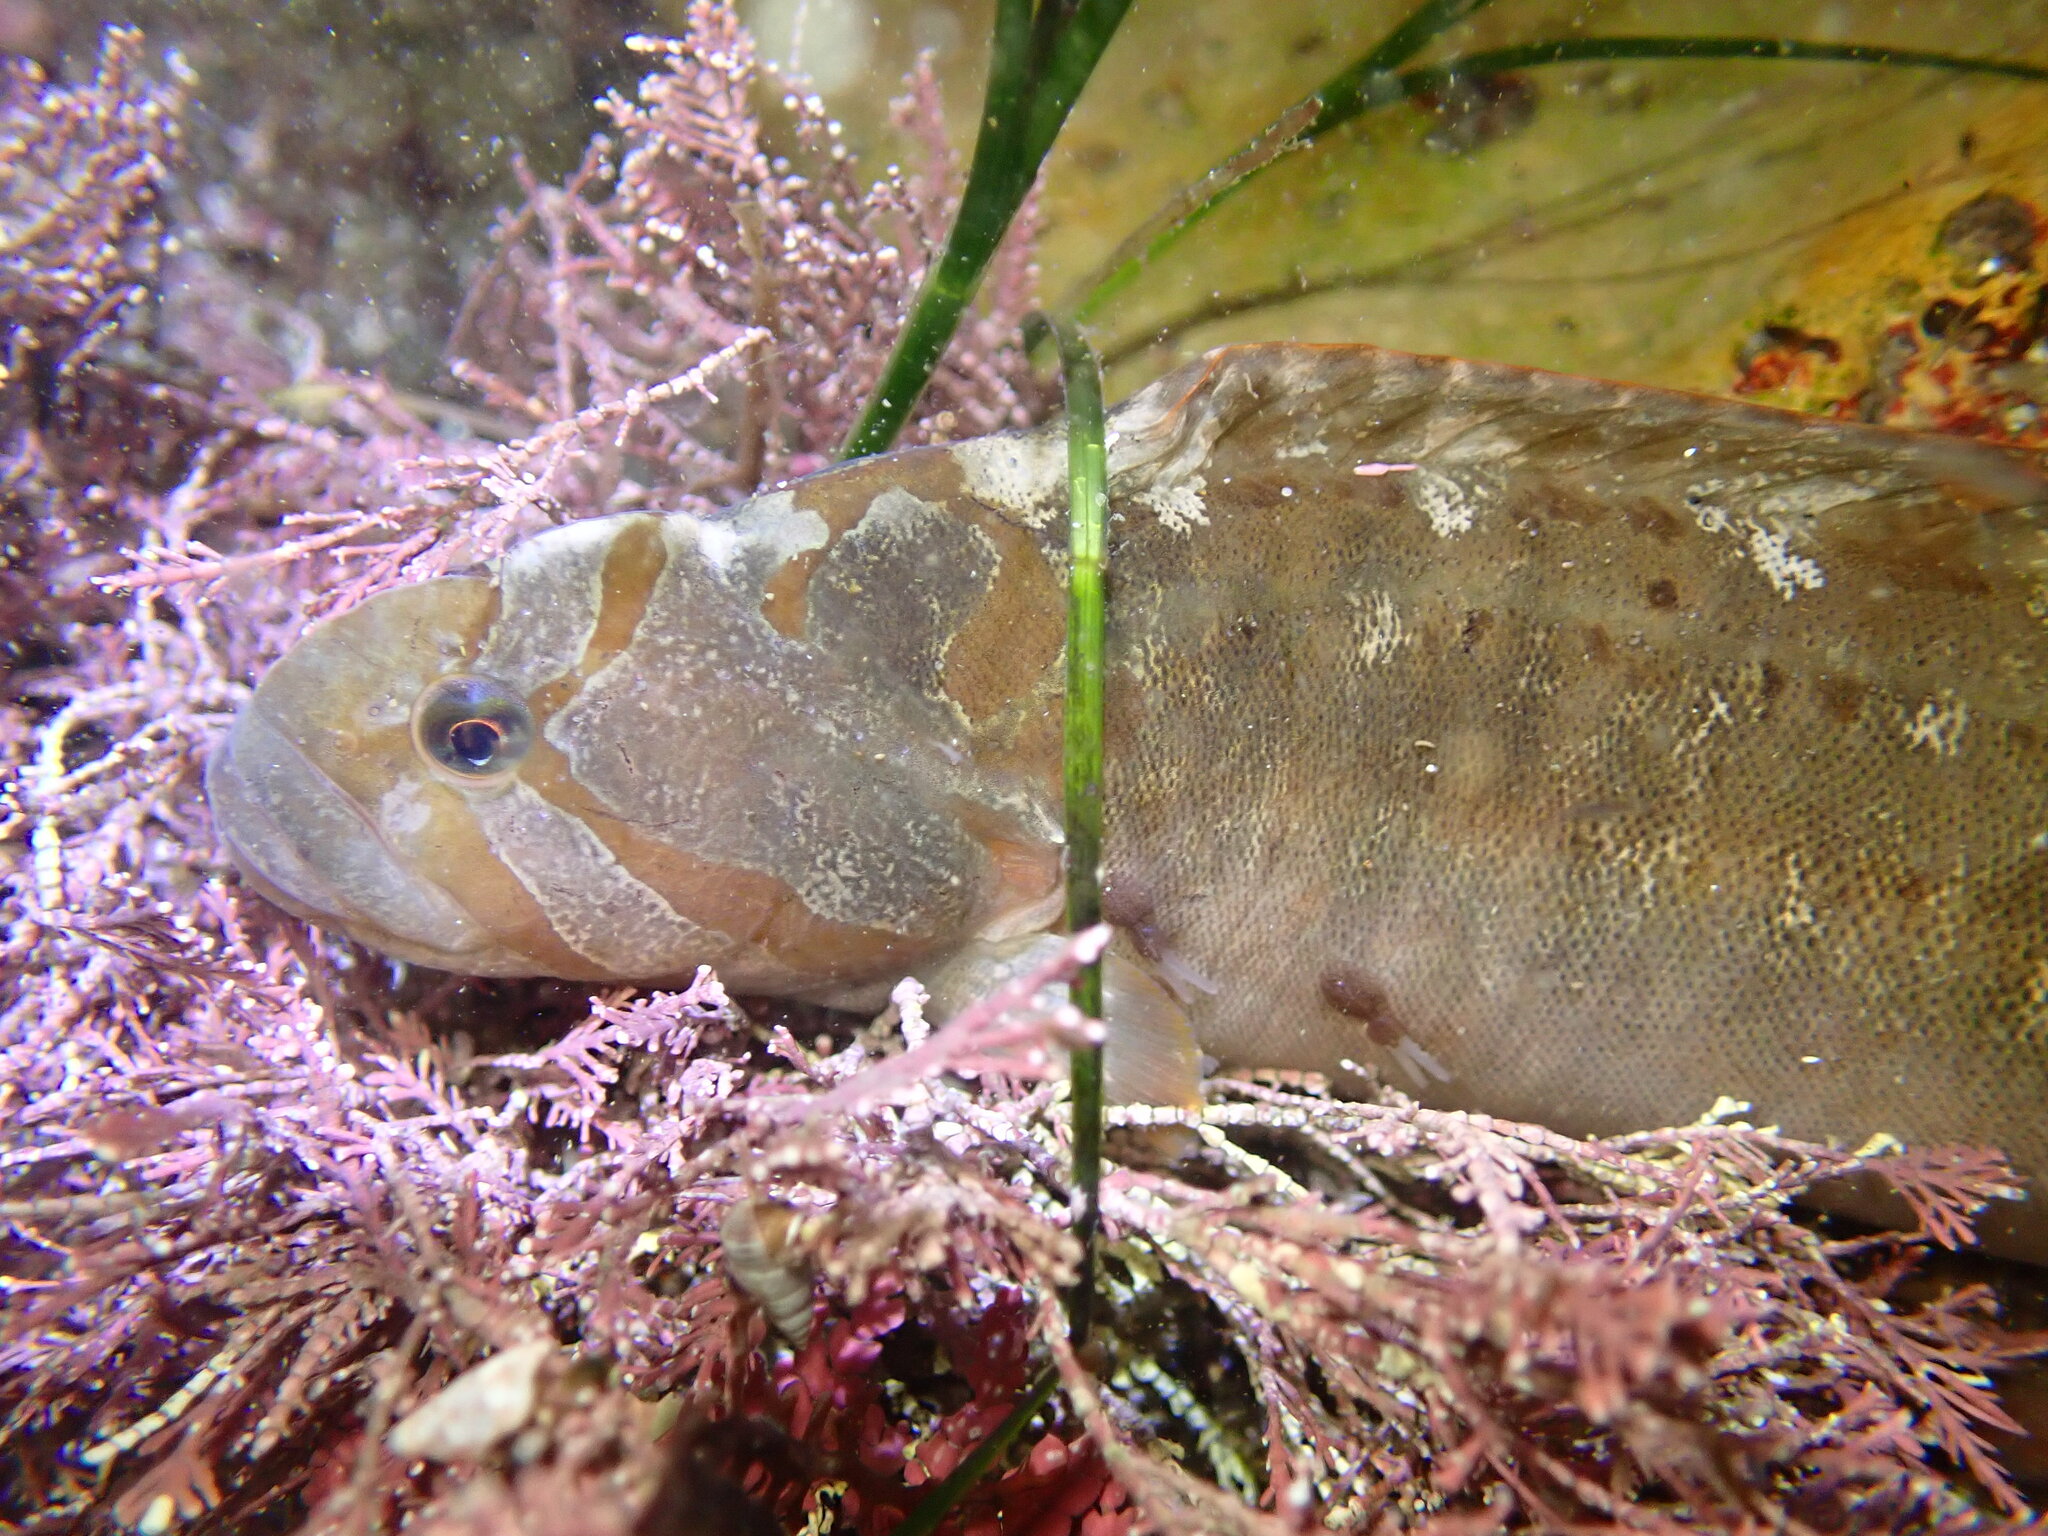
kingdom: Animalia
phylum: Chordata
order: Perciformes
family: Stichaeidae
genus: Cebidichthys
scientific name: Cebidichthys violaceus
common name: Monkeyface prickleback
